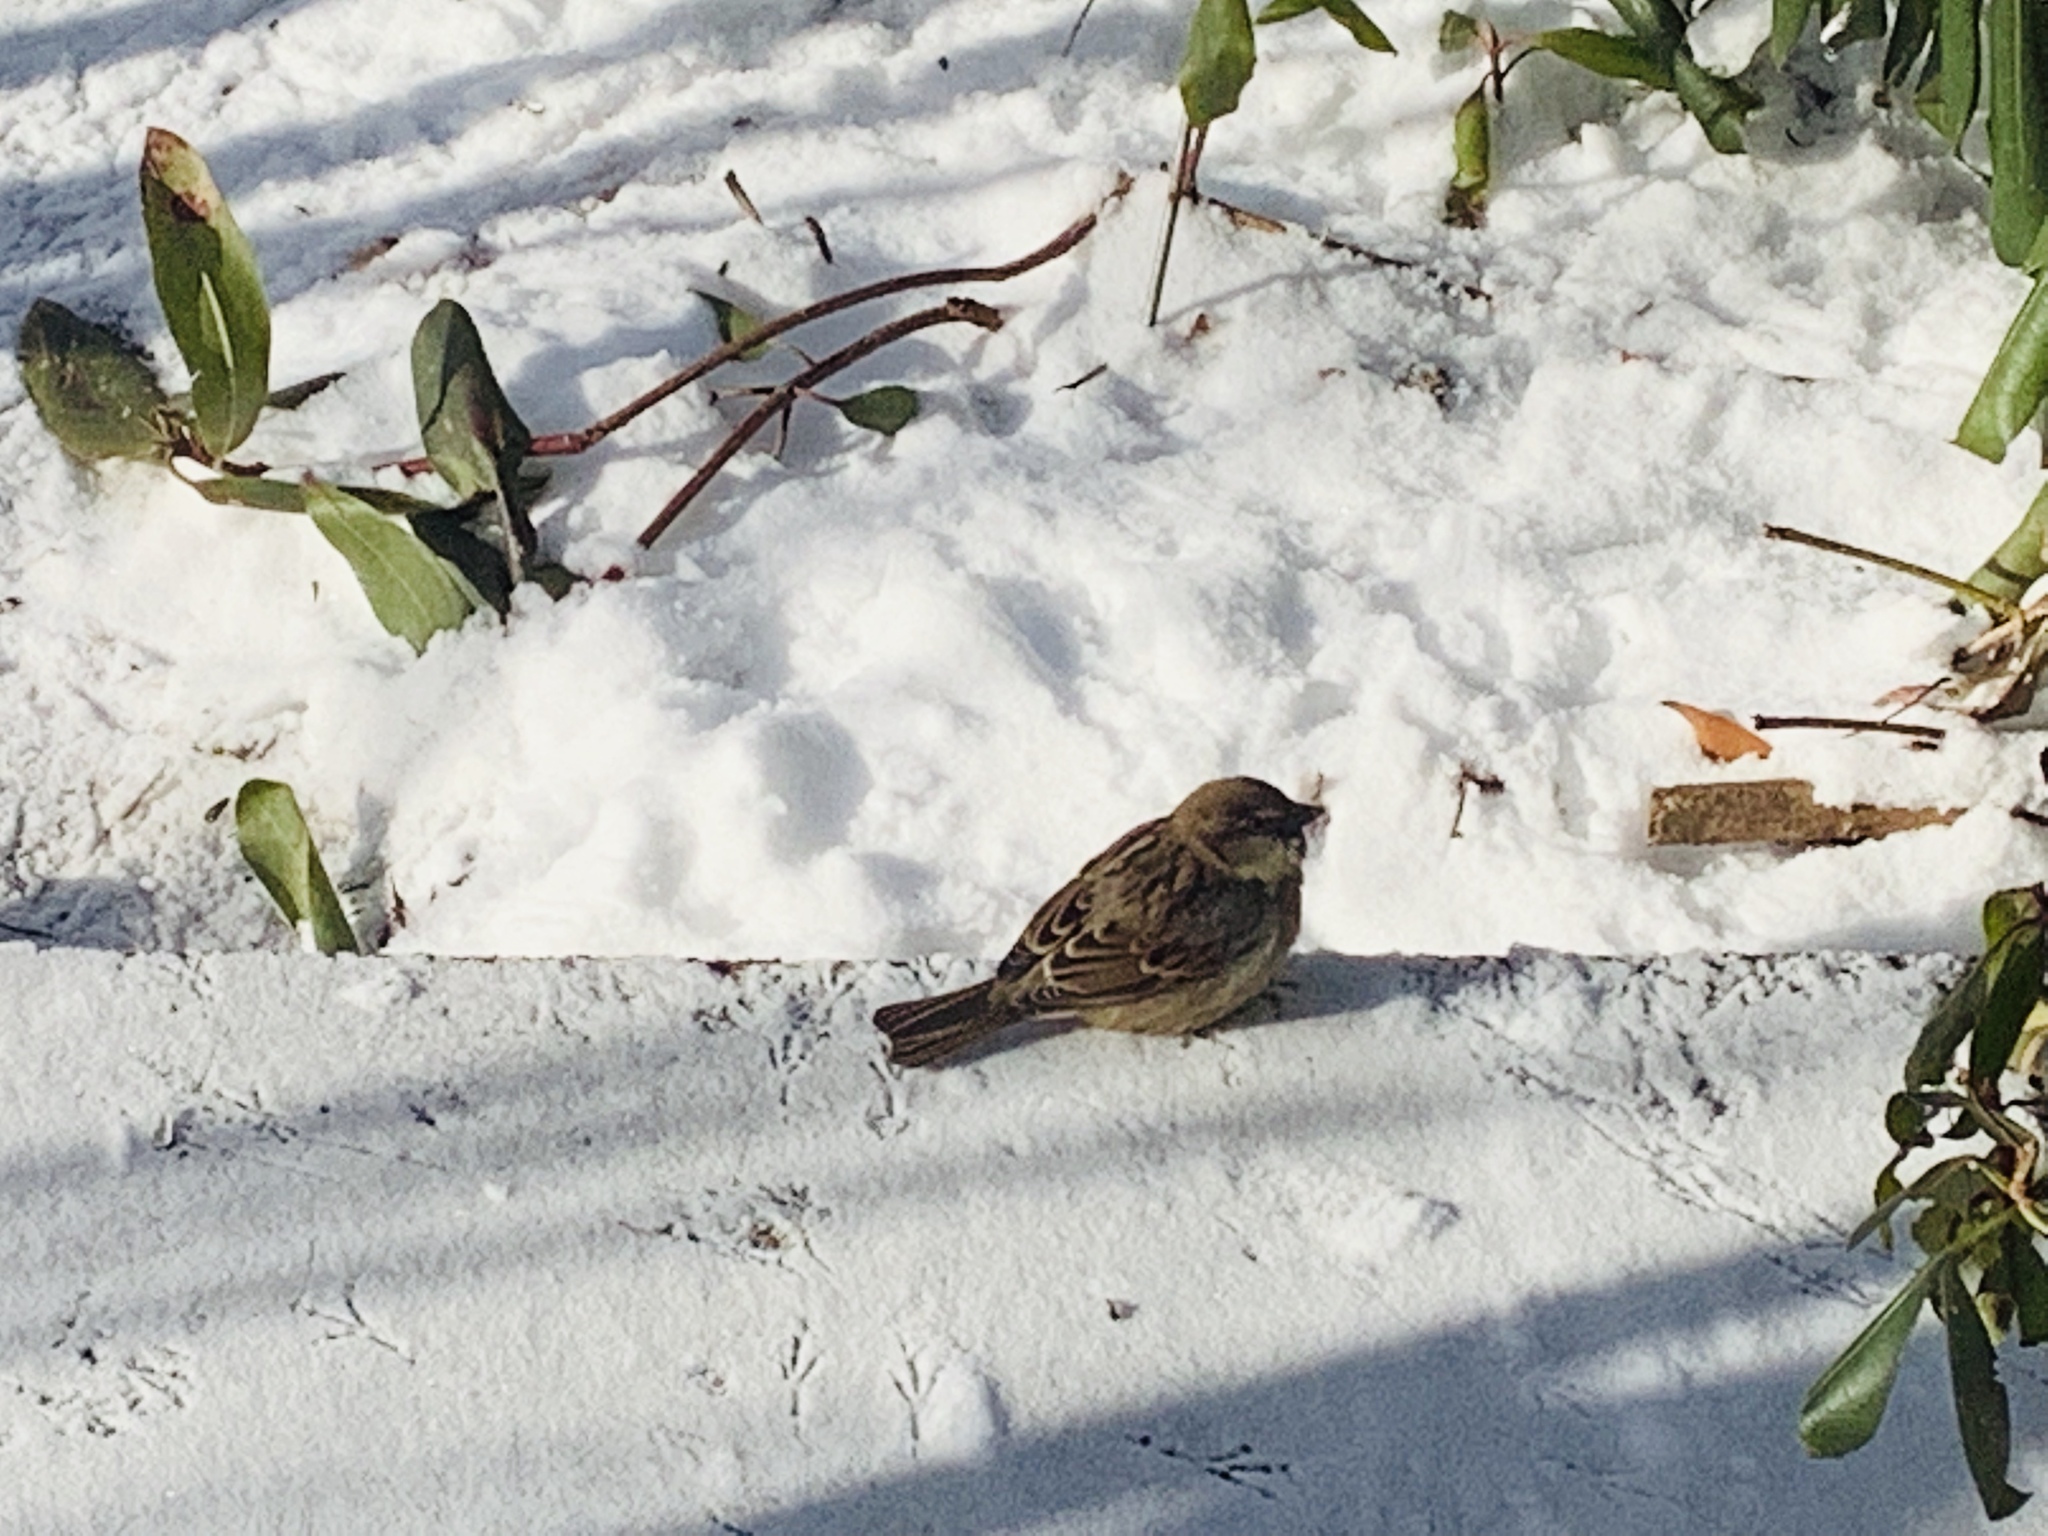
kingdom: Animalia
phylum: Chordata
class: Aves
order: Passeriformes
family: Passeridae
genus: Passer
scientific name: Passer domesticus
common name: House sparrow
